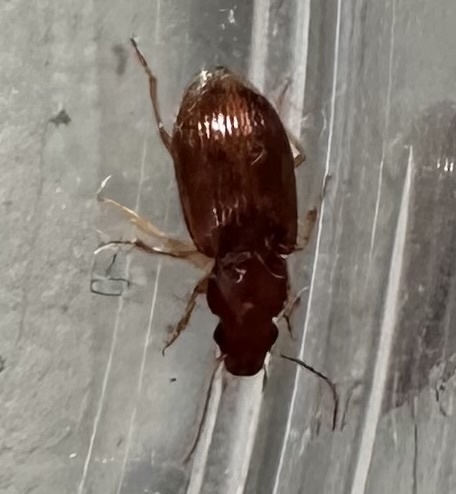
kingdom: Animalia
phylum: Arthropoda
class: Insecta
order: Coleoptera
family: Carabidae
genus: Bradycellus
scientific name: Bradycellus verbasci
